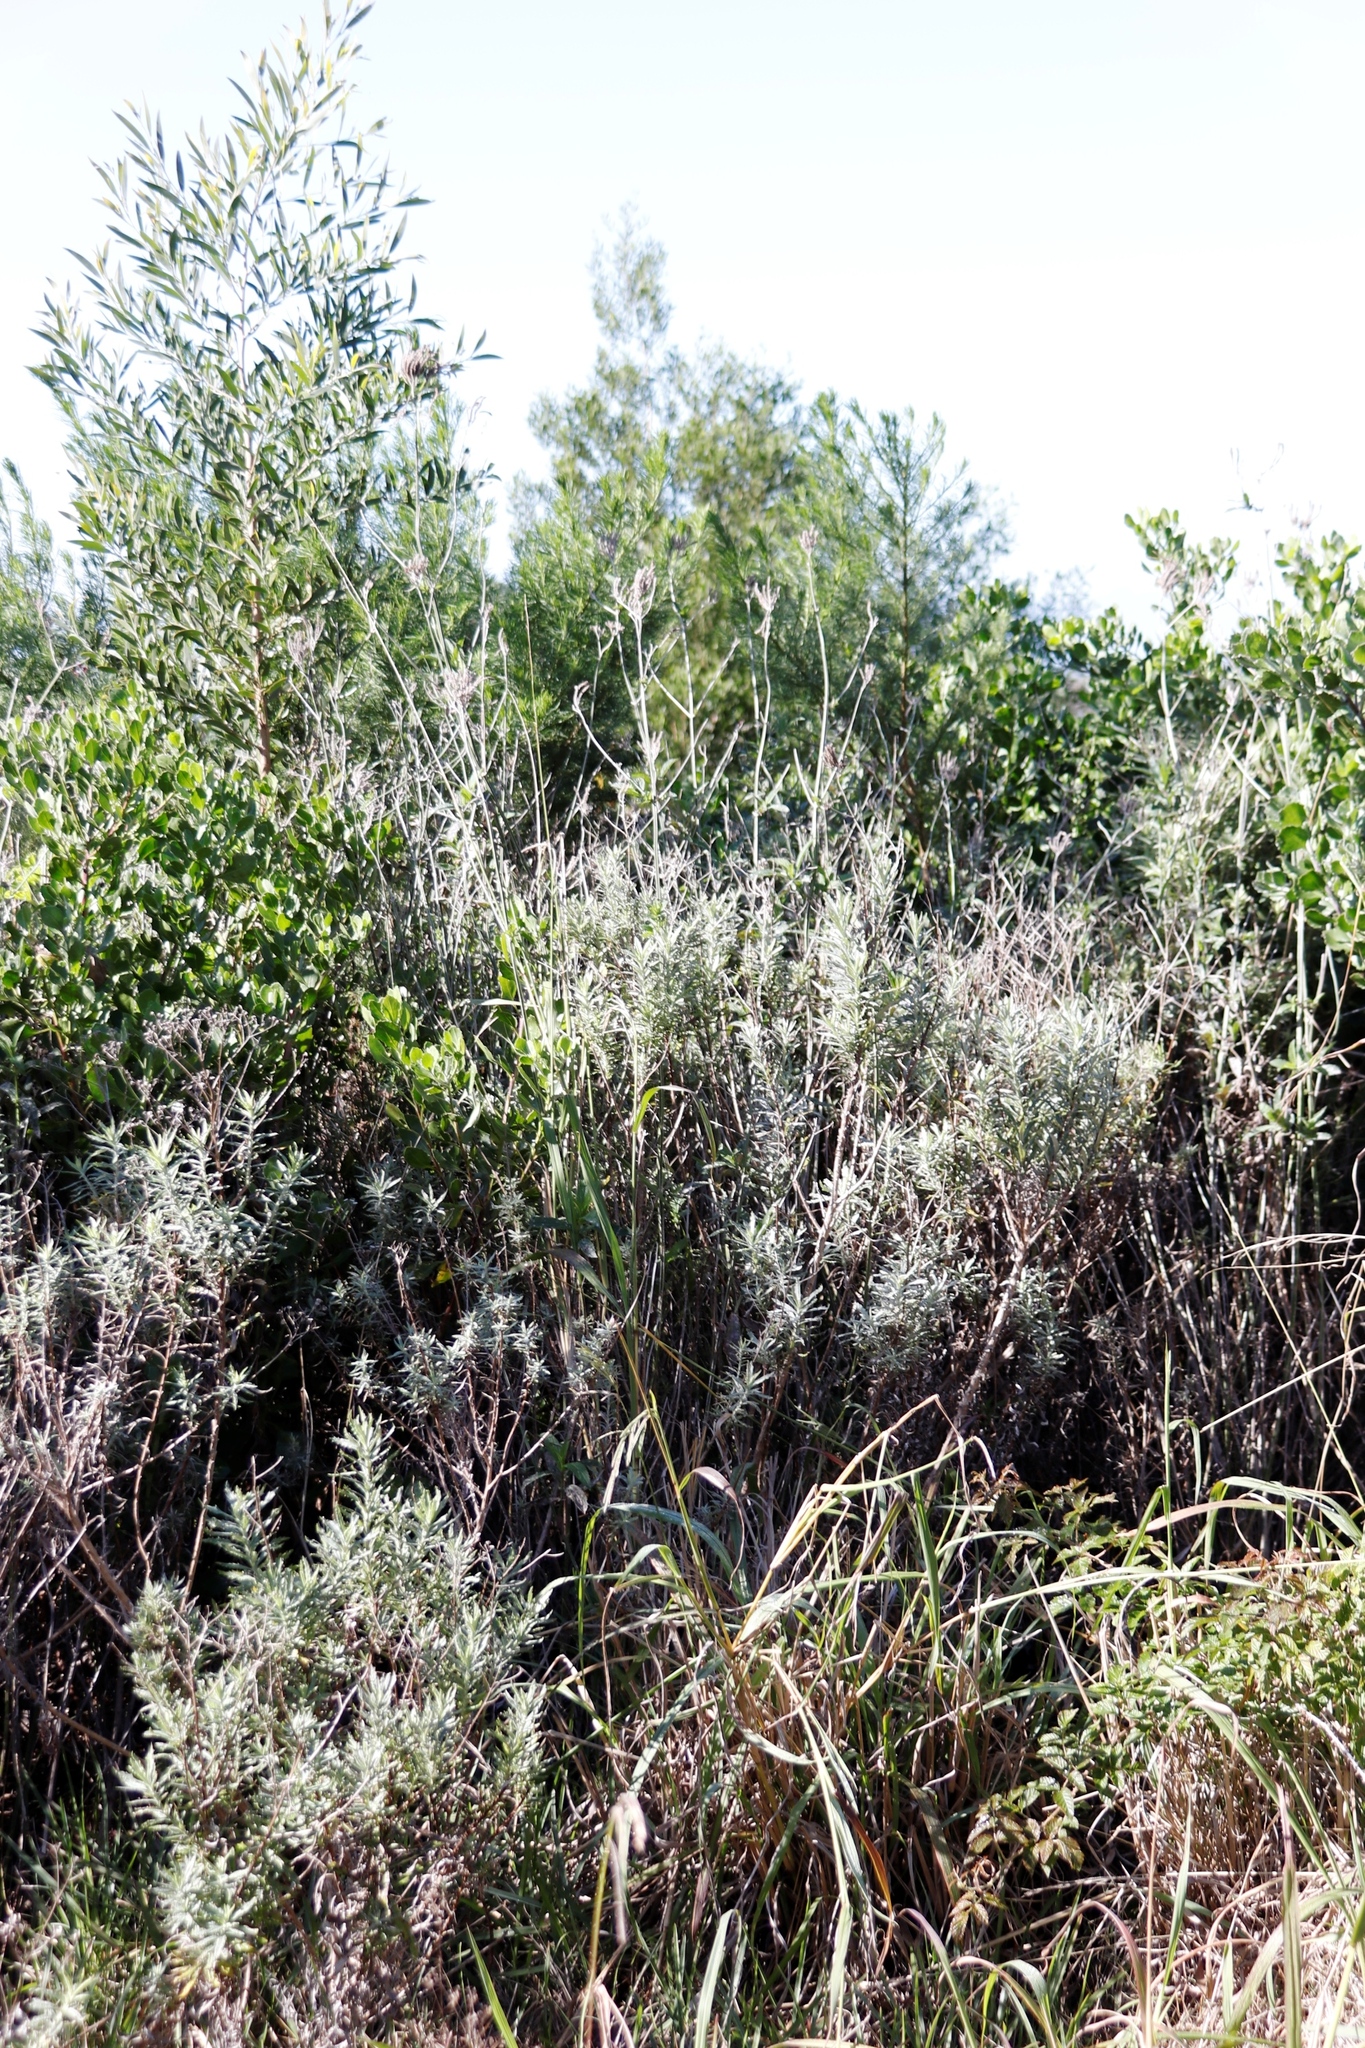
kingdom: Plantae
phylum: Tracheophyta
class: Magnoliopsida
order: Lamiales
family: Verbenaceae
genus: Verbena
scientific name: Verbena bonariensis
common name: Purpletop vervain
